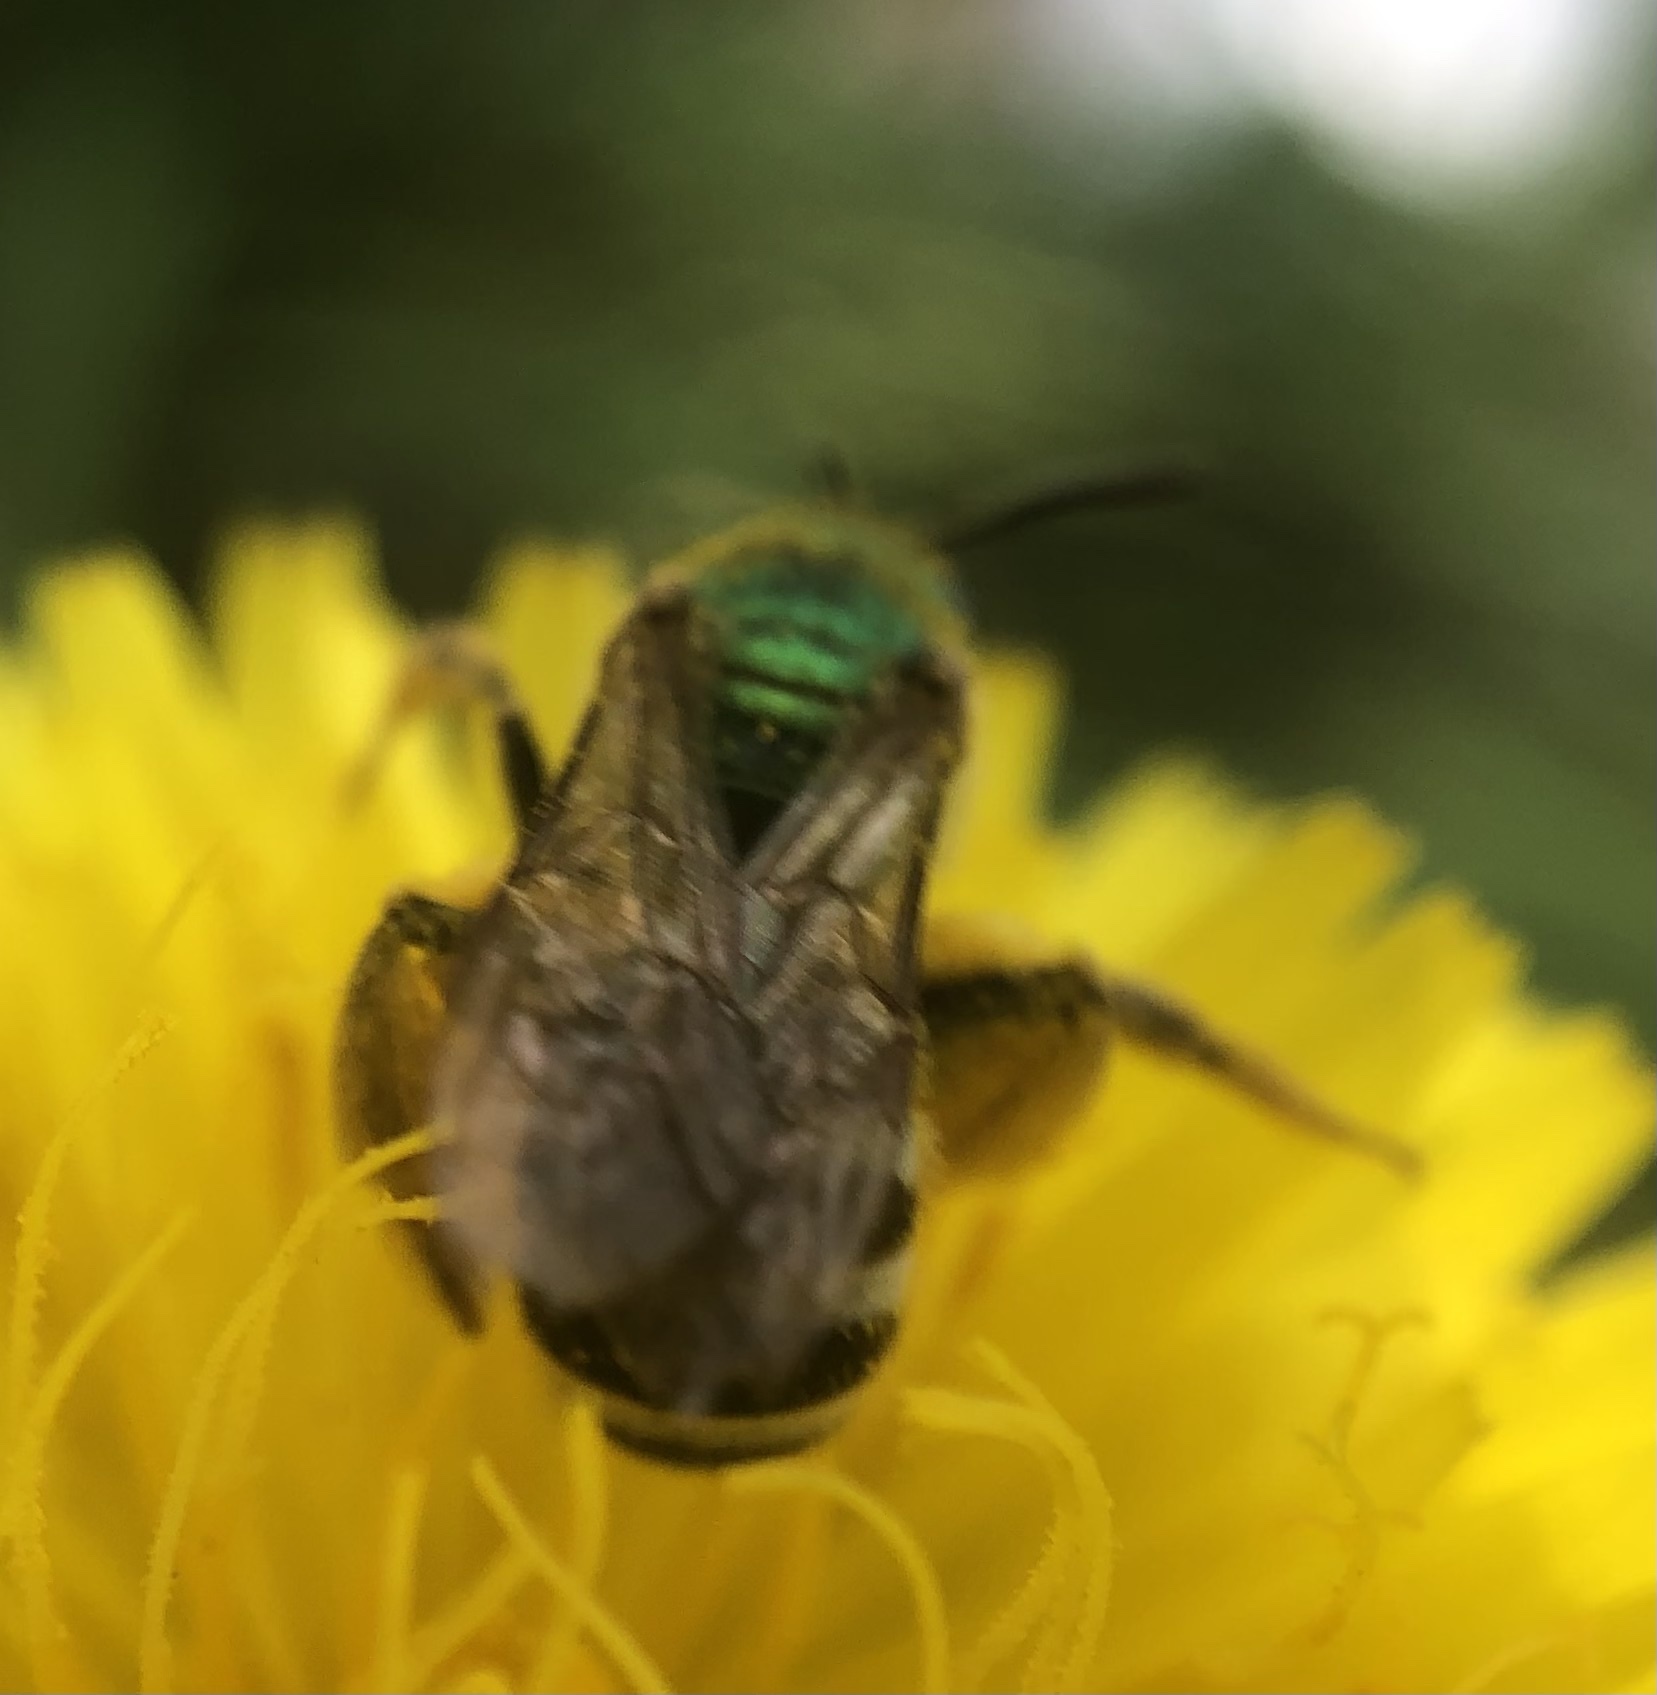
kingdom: Animalia
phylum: Arthropoda
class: Insecta
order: Hymenoptera
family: Halictidae
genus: Agapostemon
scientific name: Agapostemon virescens
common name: Bicolored striped sweat bee
